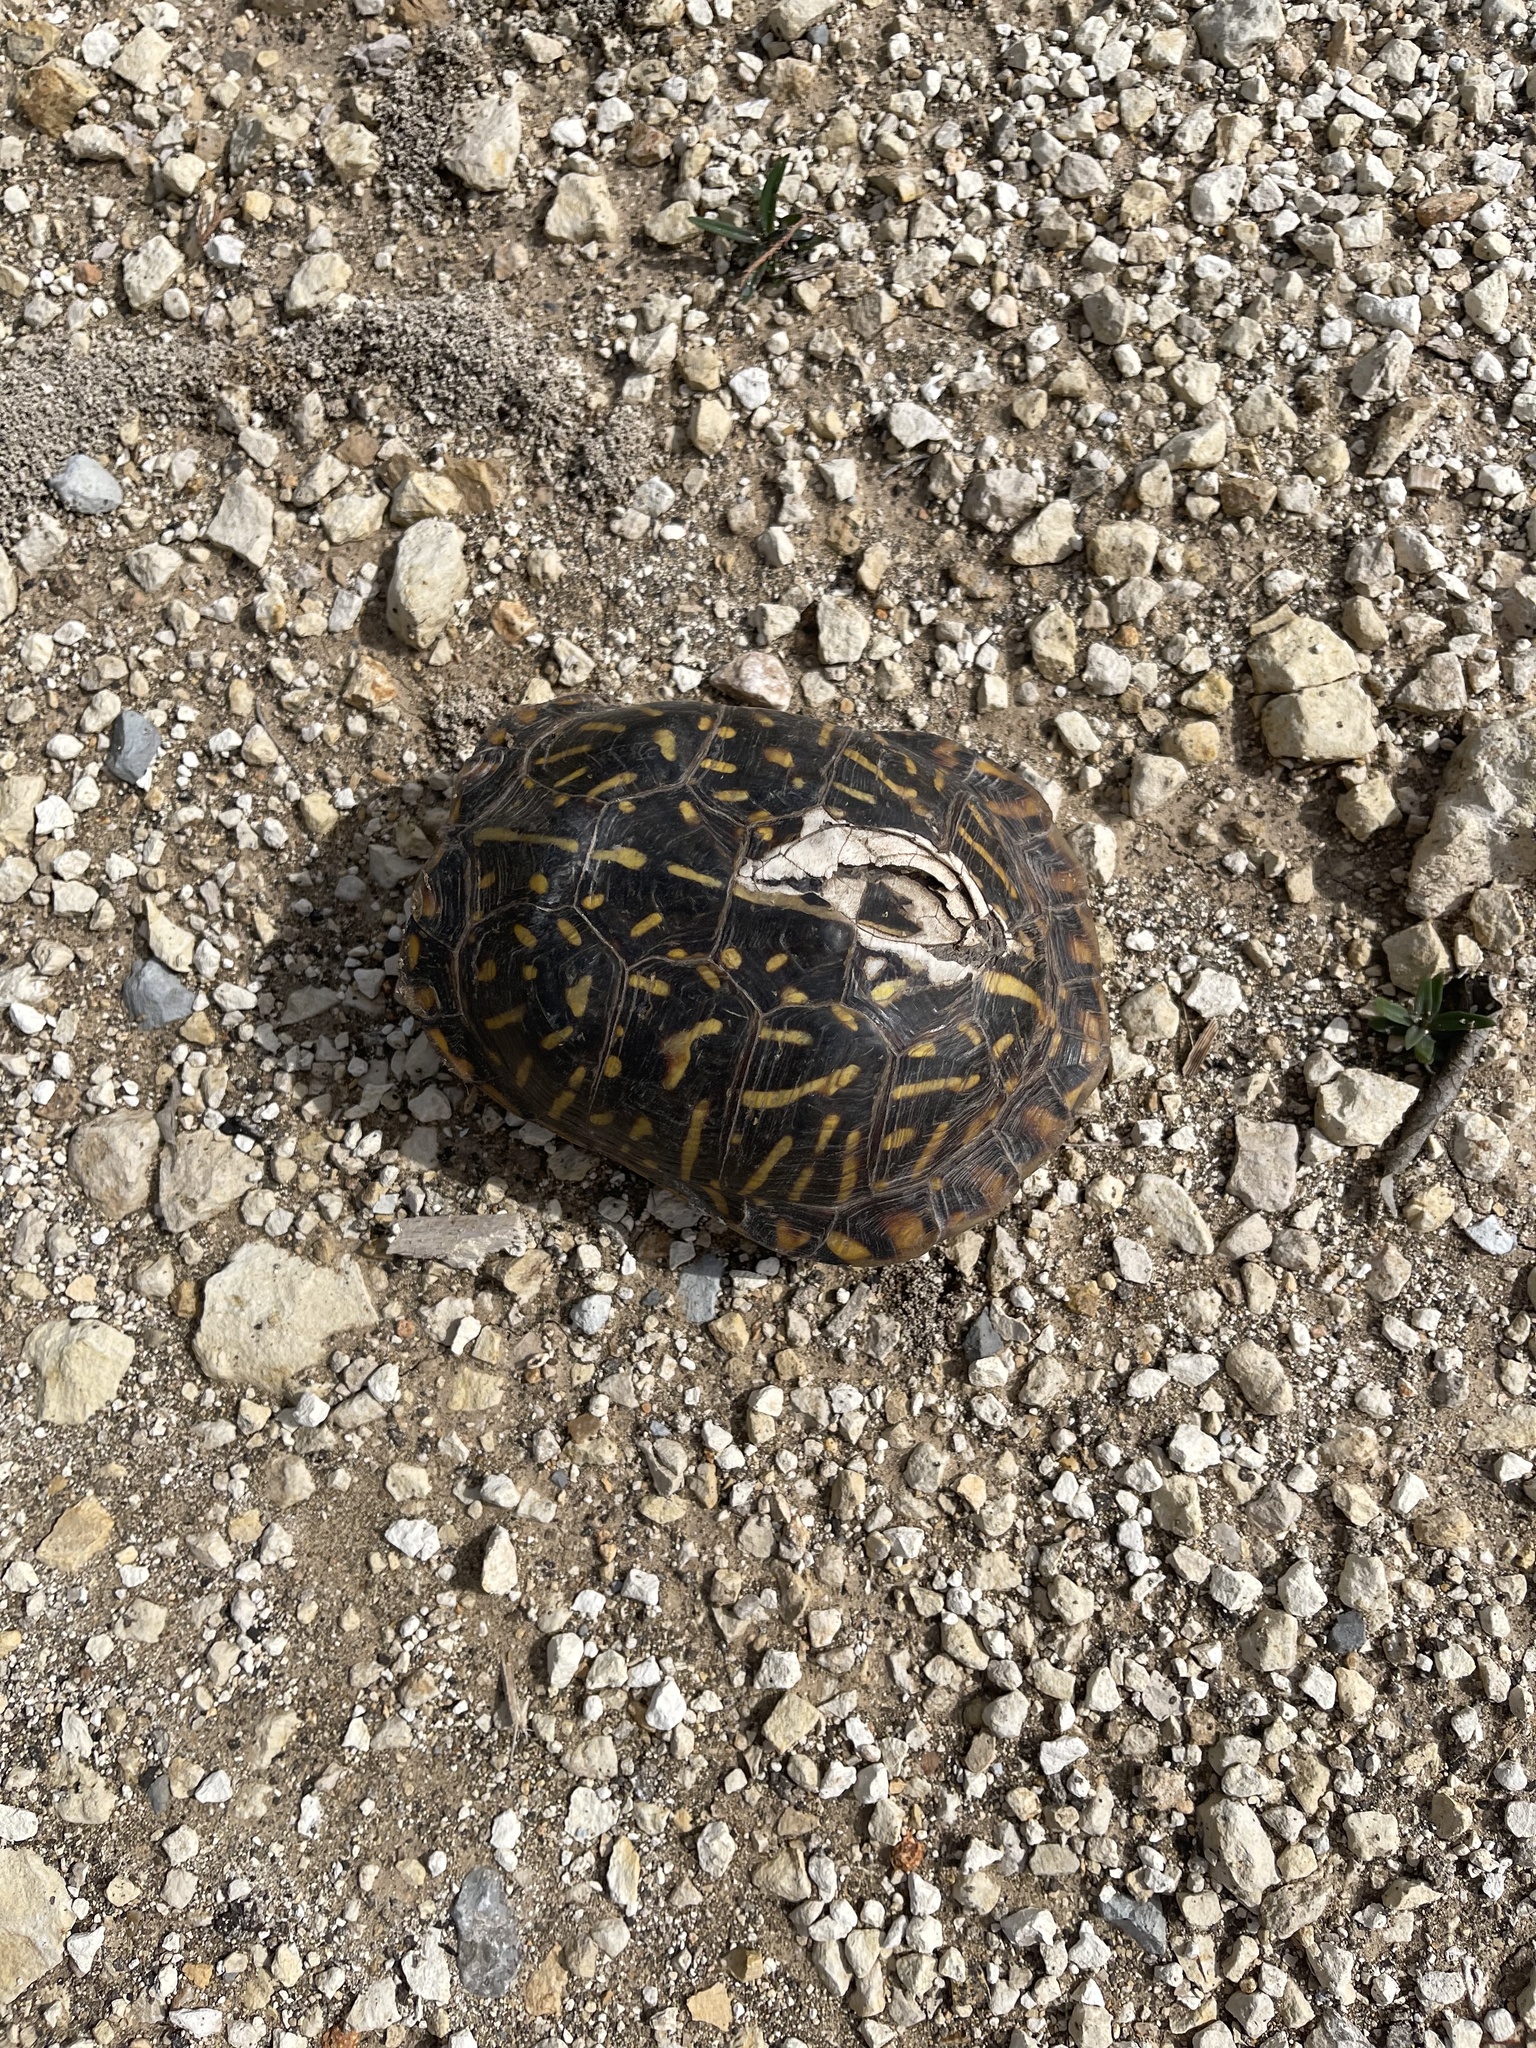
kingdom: Animalia
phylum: Chordata
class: Testudines
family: Emydidae
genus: Terrapene
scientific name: Terrapene ornata
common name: Western box turtle
